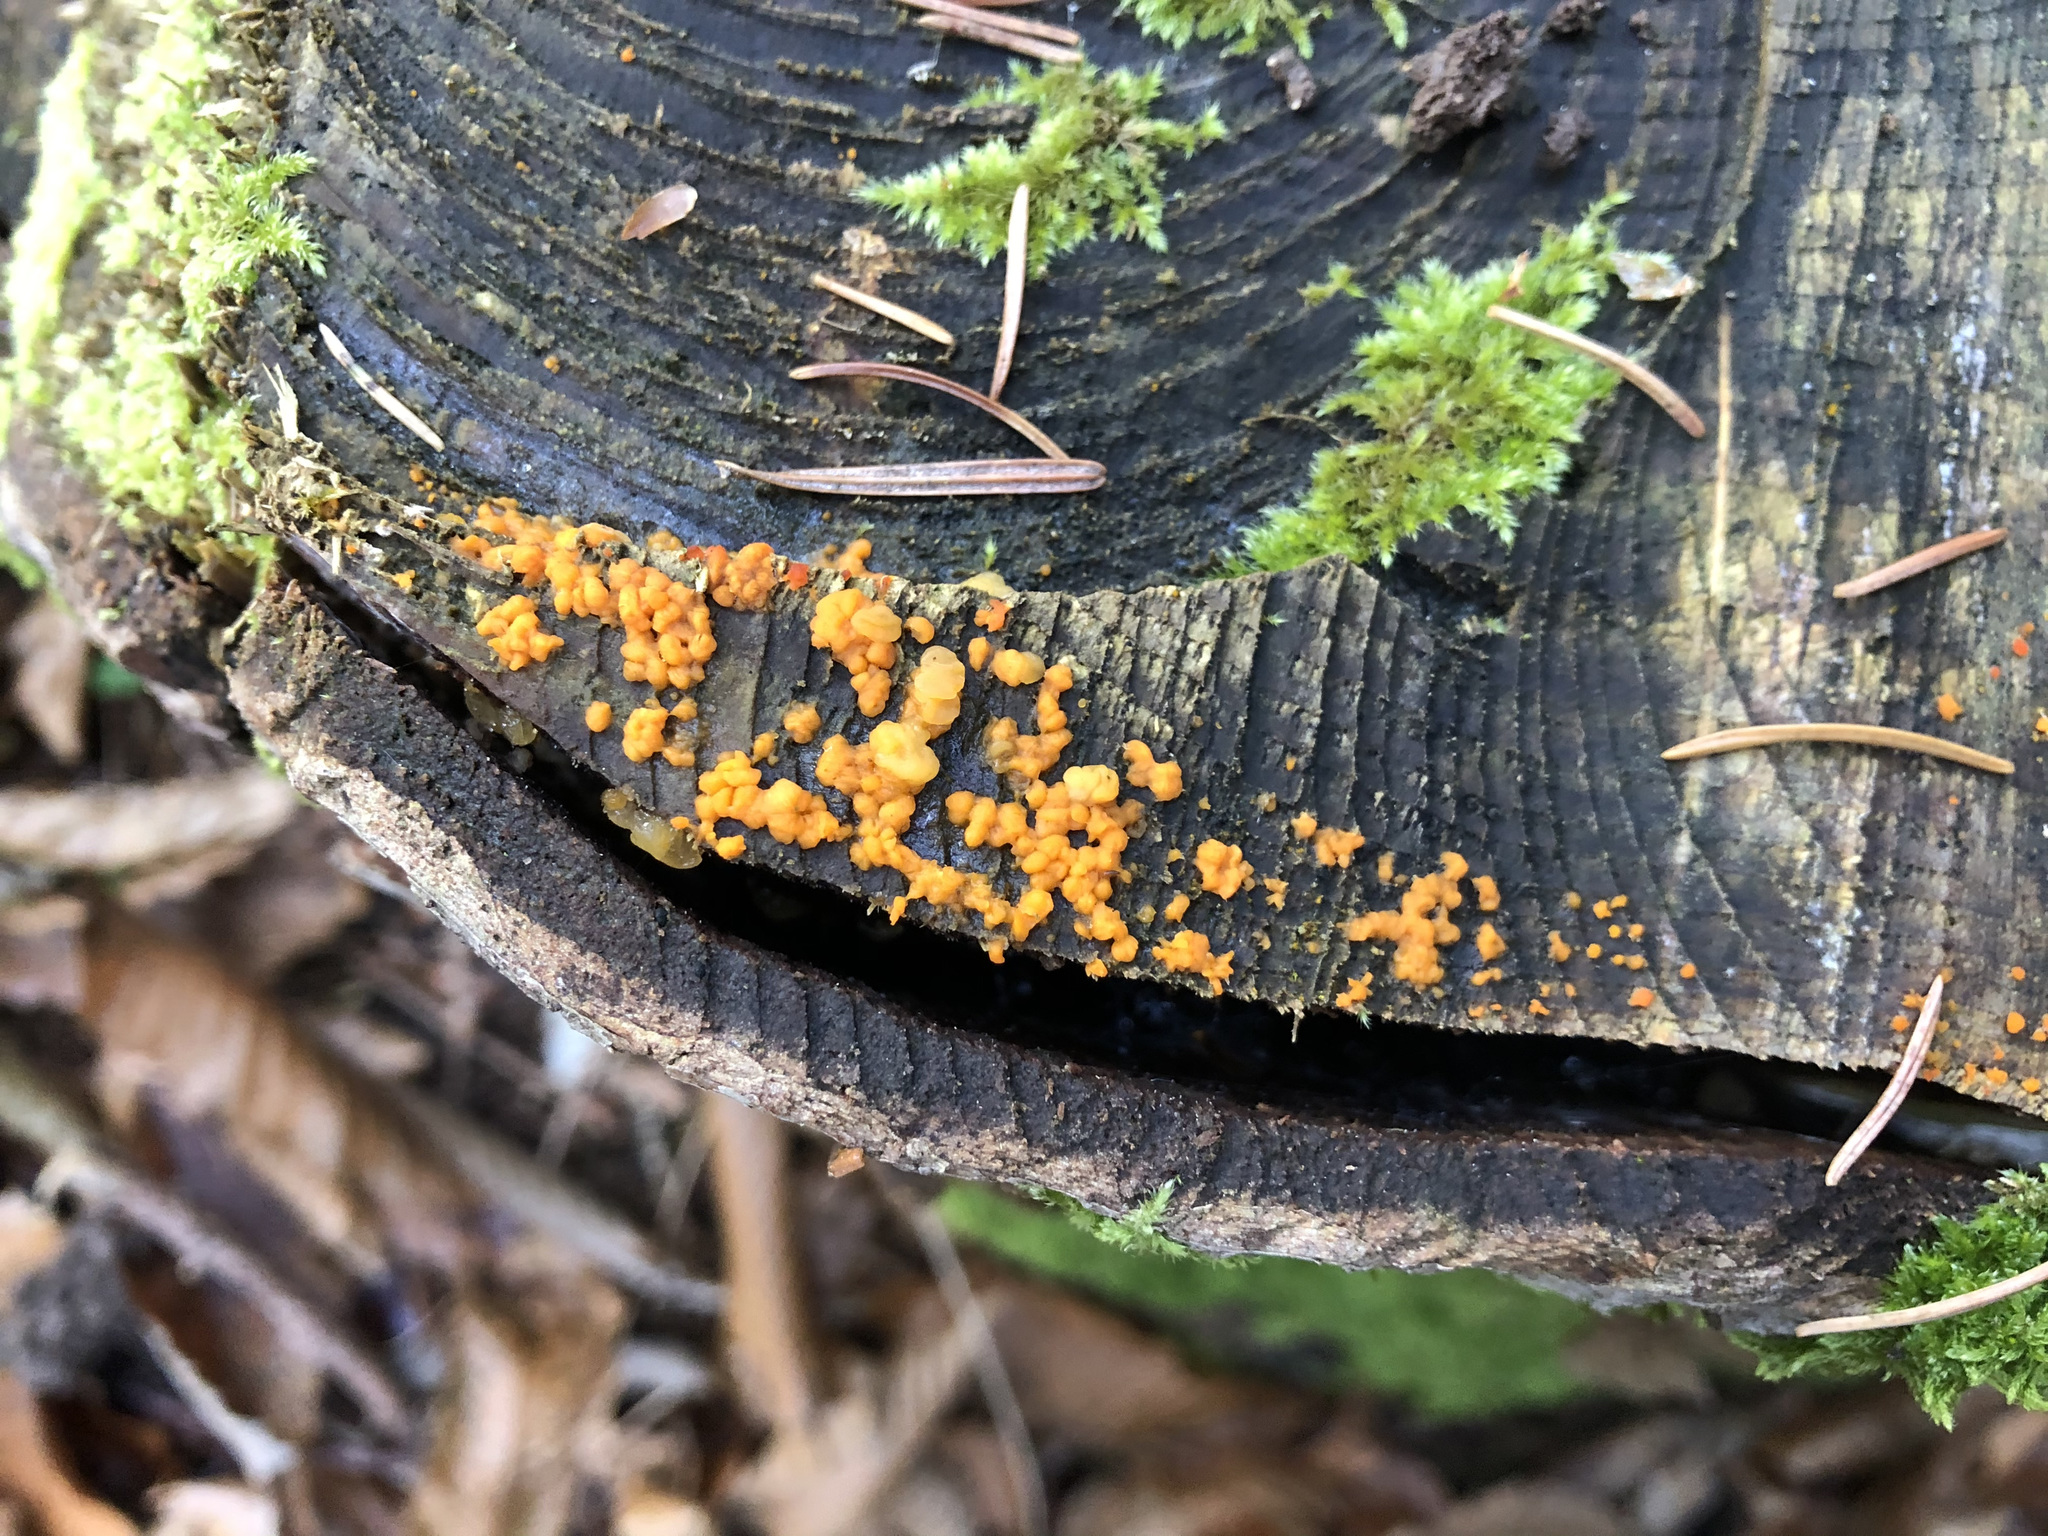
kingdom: Fungi
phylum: Basidiomycota
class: Dacrymycetes
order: Dacrymycetales
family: Dacrymycetaceae
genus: Dacrymyces
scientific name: Dacrymyces stillatus
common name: Common jelly spot
